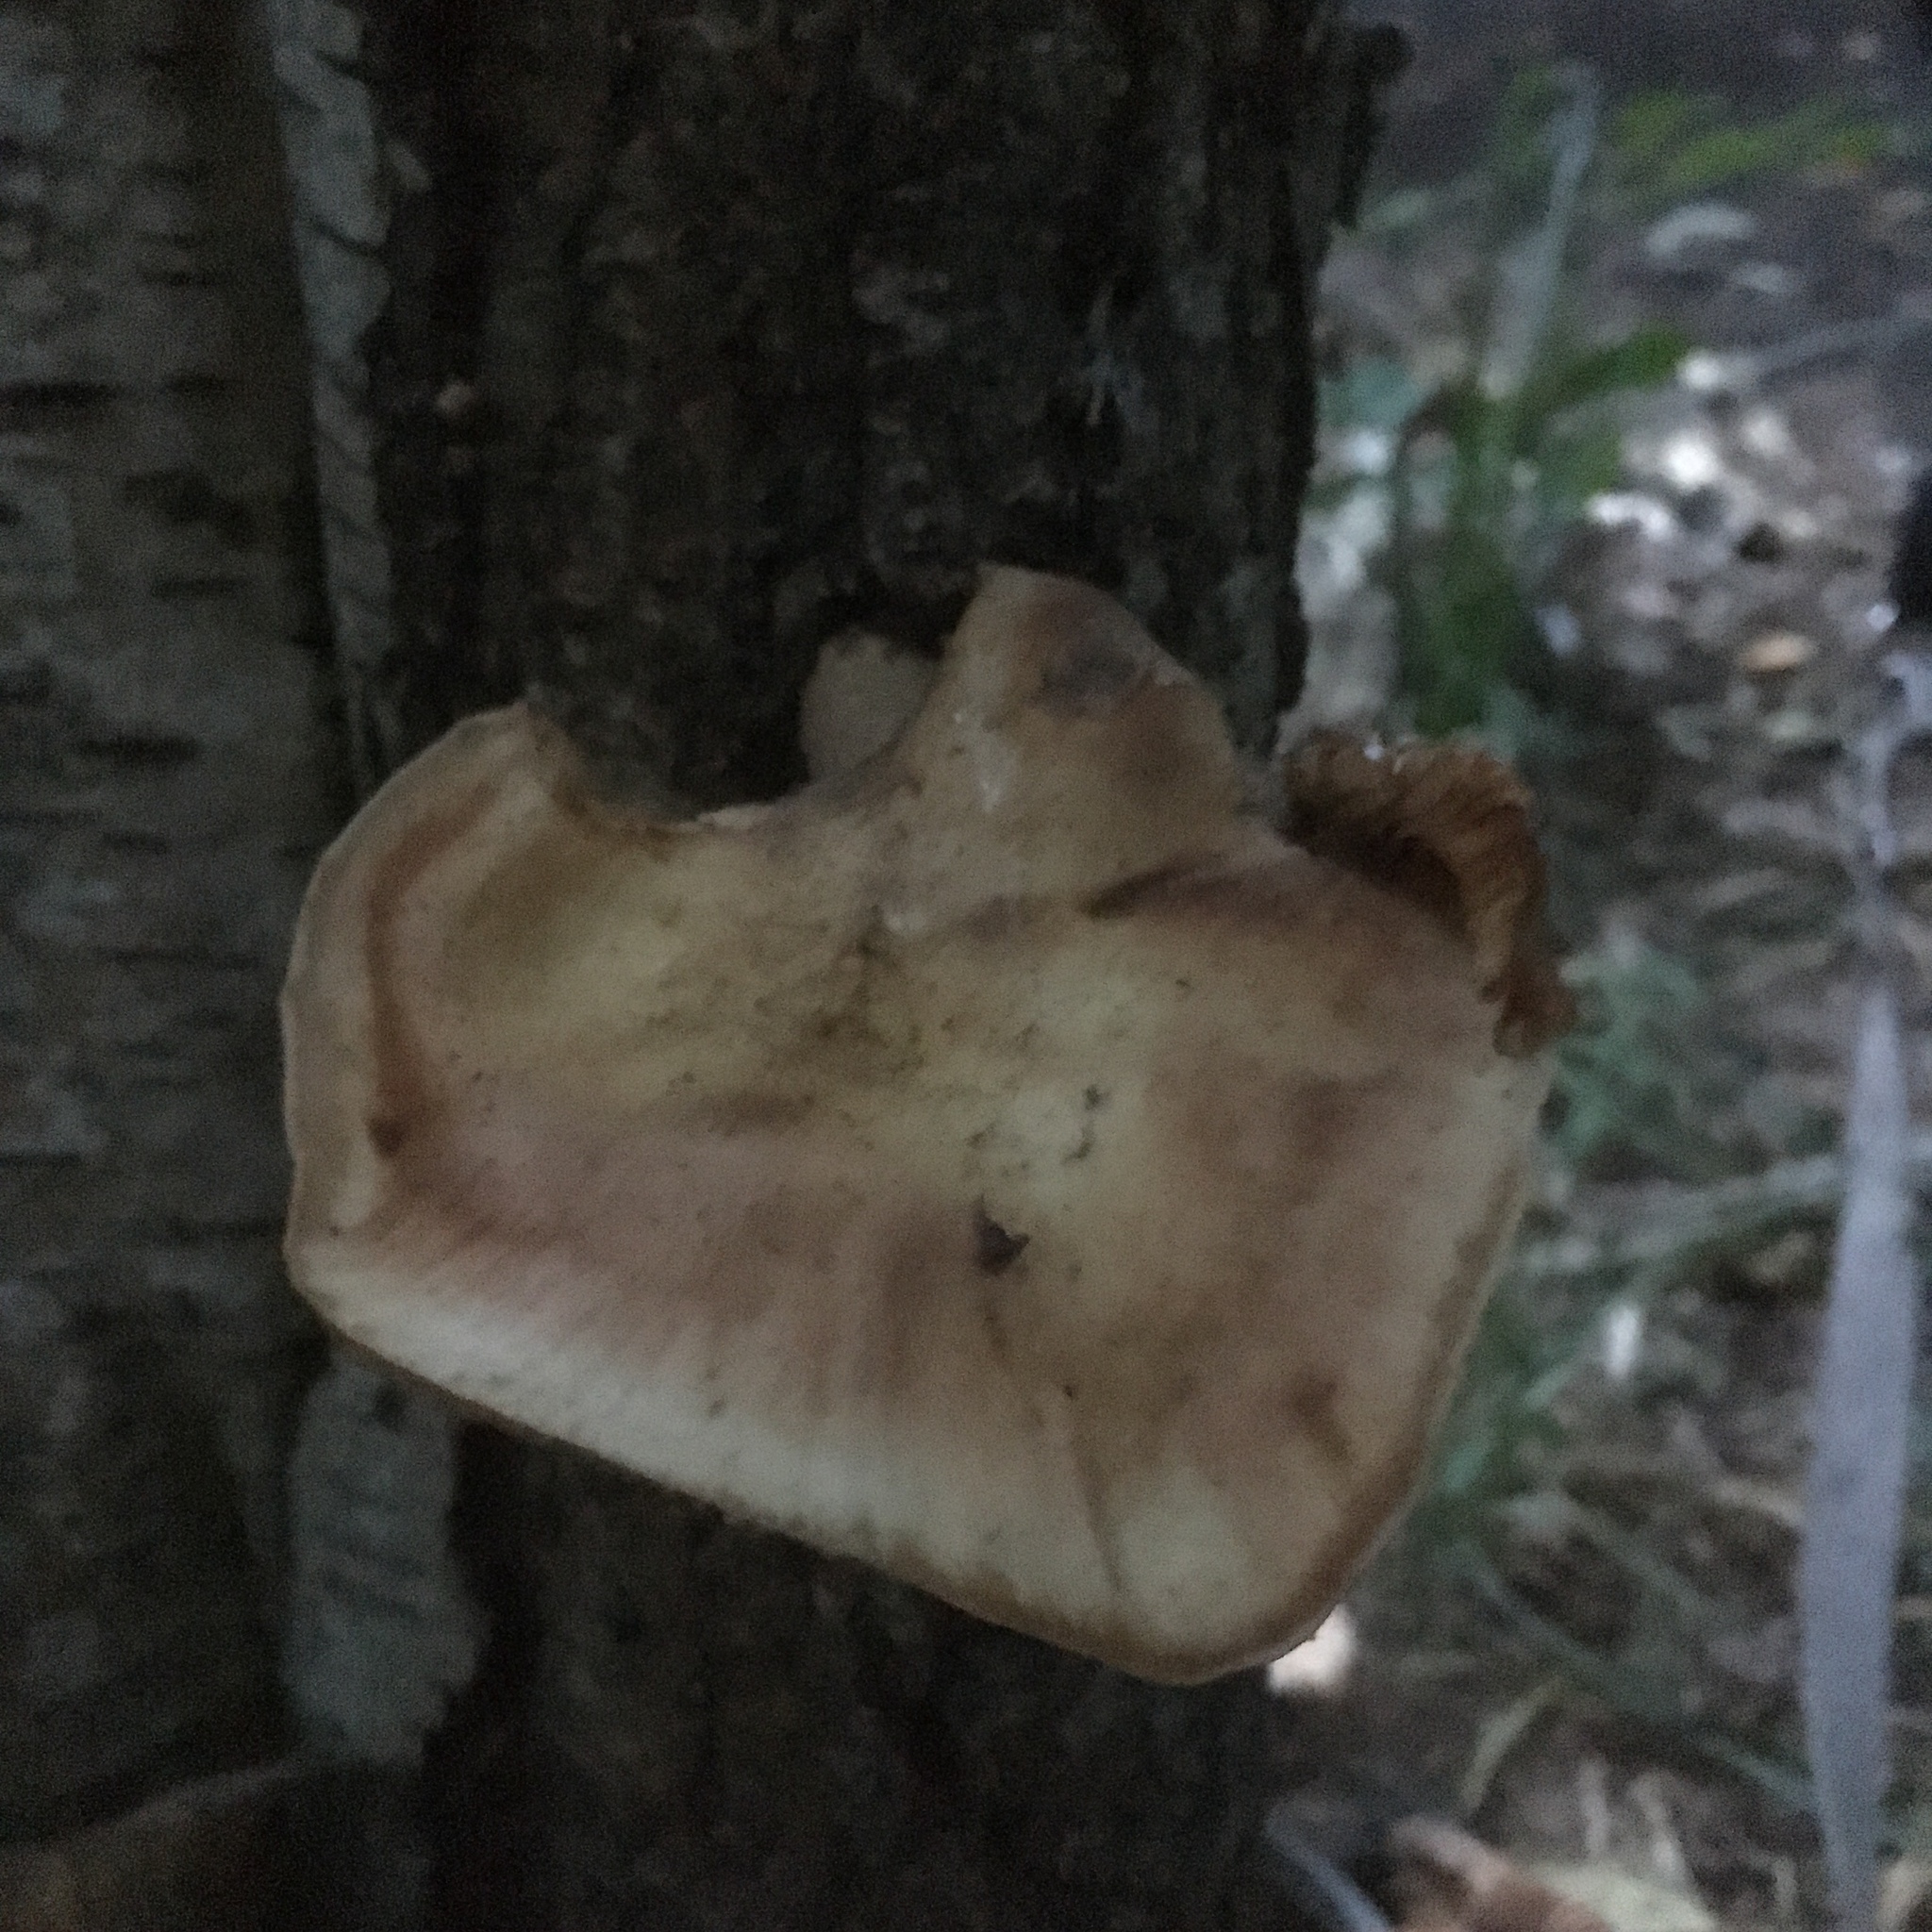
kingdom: Fungi
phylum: Basidiomycota
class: Agaricomycetes
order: Agaricales
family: Physalacriaceae
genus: Armillaria
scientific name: Armillaria mellea
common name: Honey fungus
